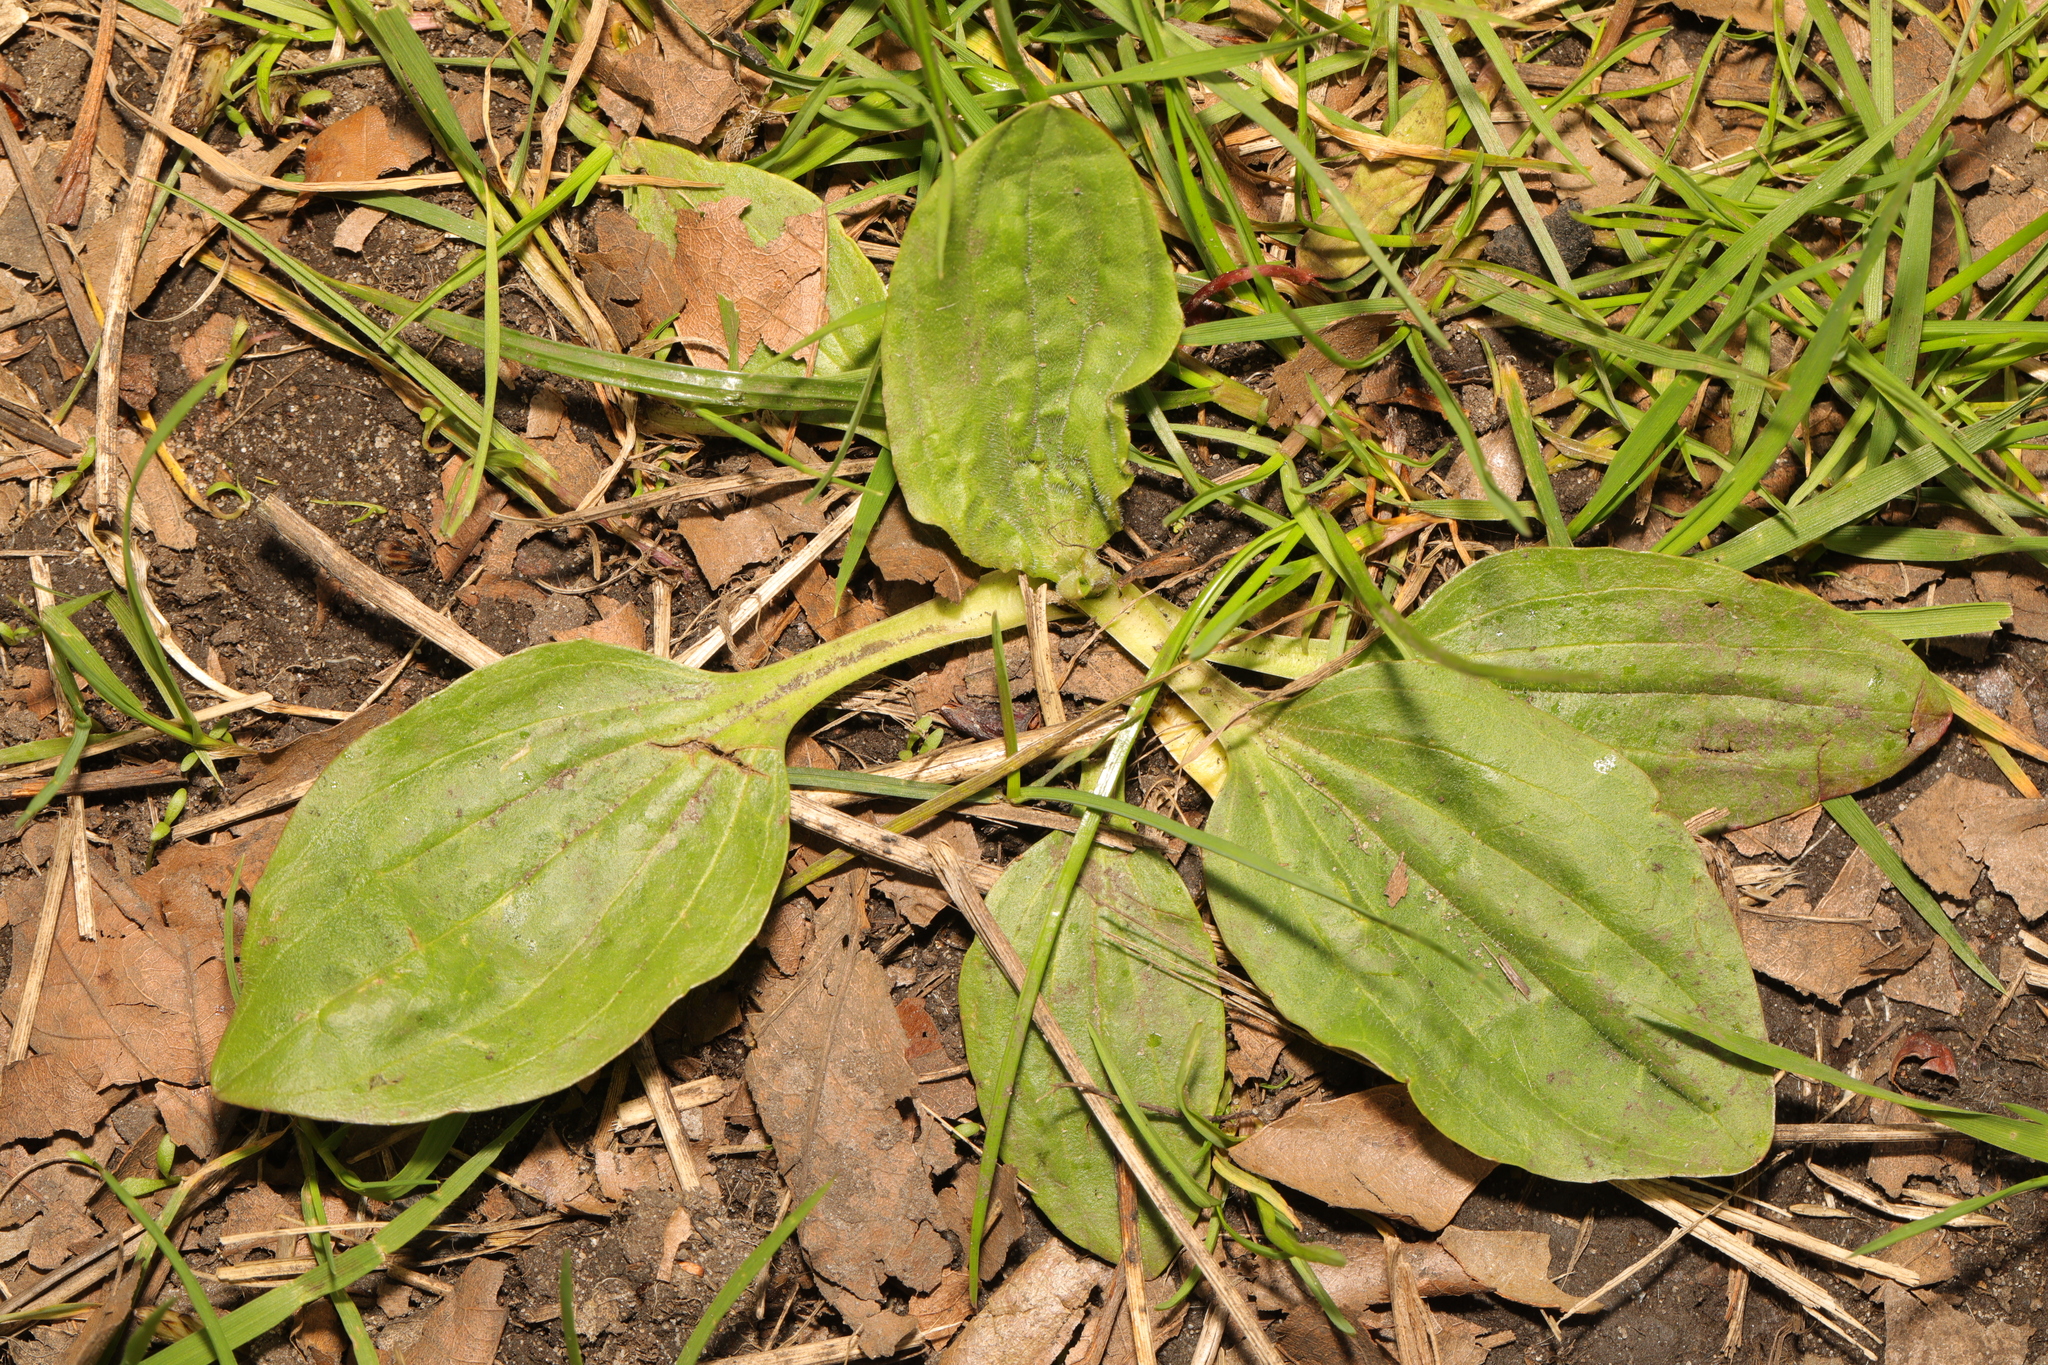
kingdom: Plantae
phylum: Tracheophyta
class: Magnoliopsida
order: Lamiales
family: Plantaginaceae
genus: Plantago
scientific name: Plantago major
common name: Common plantain
